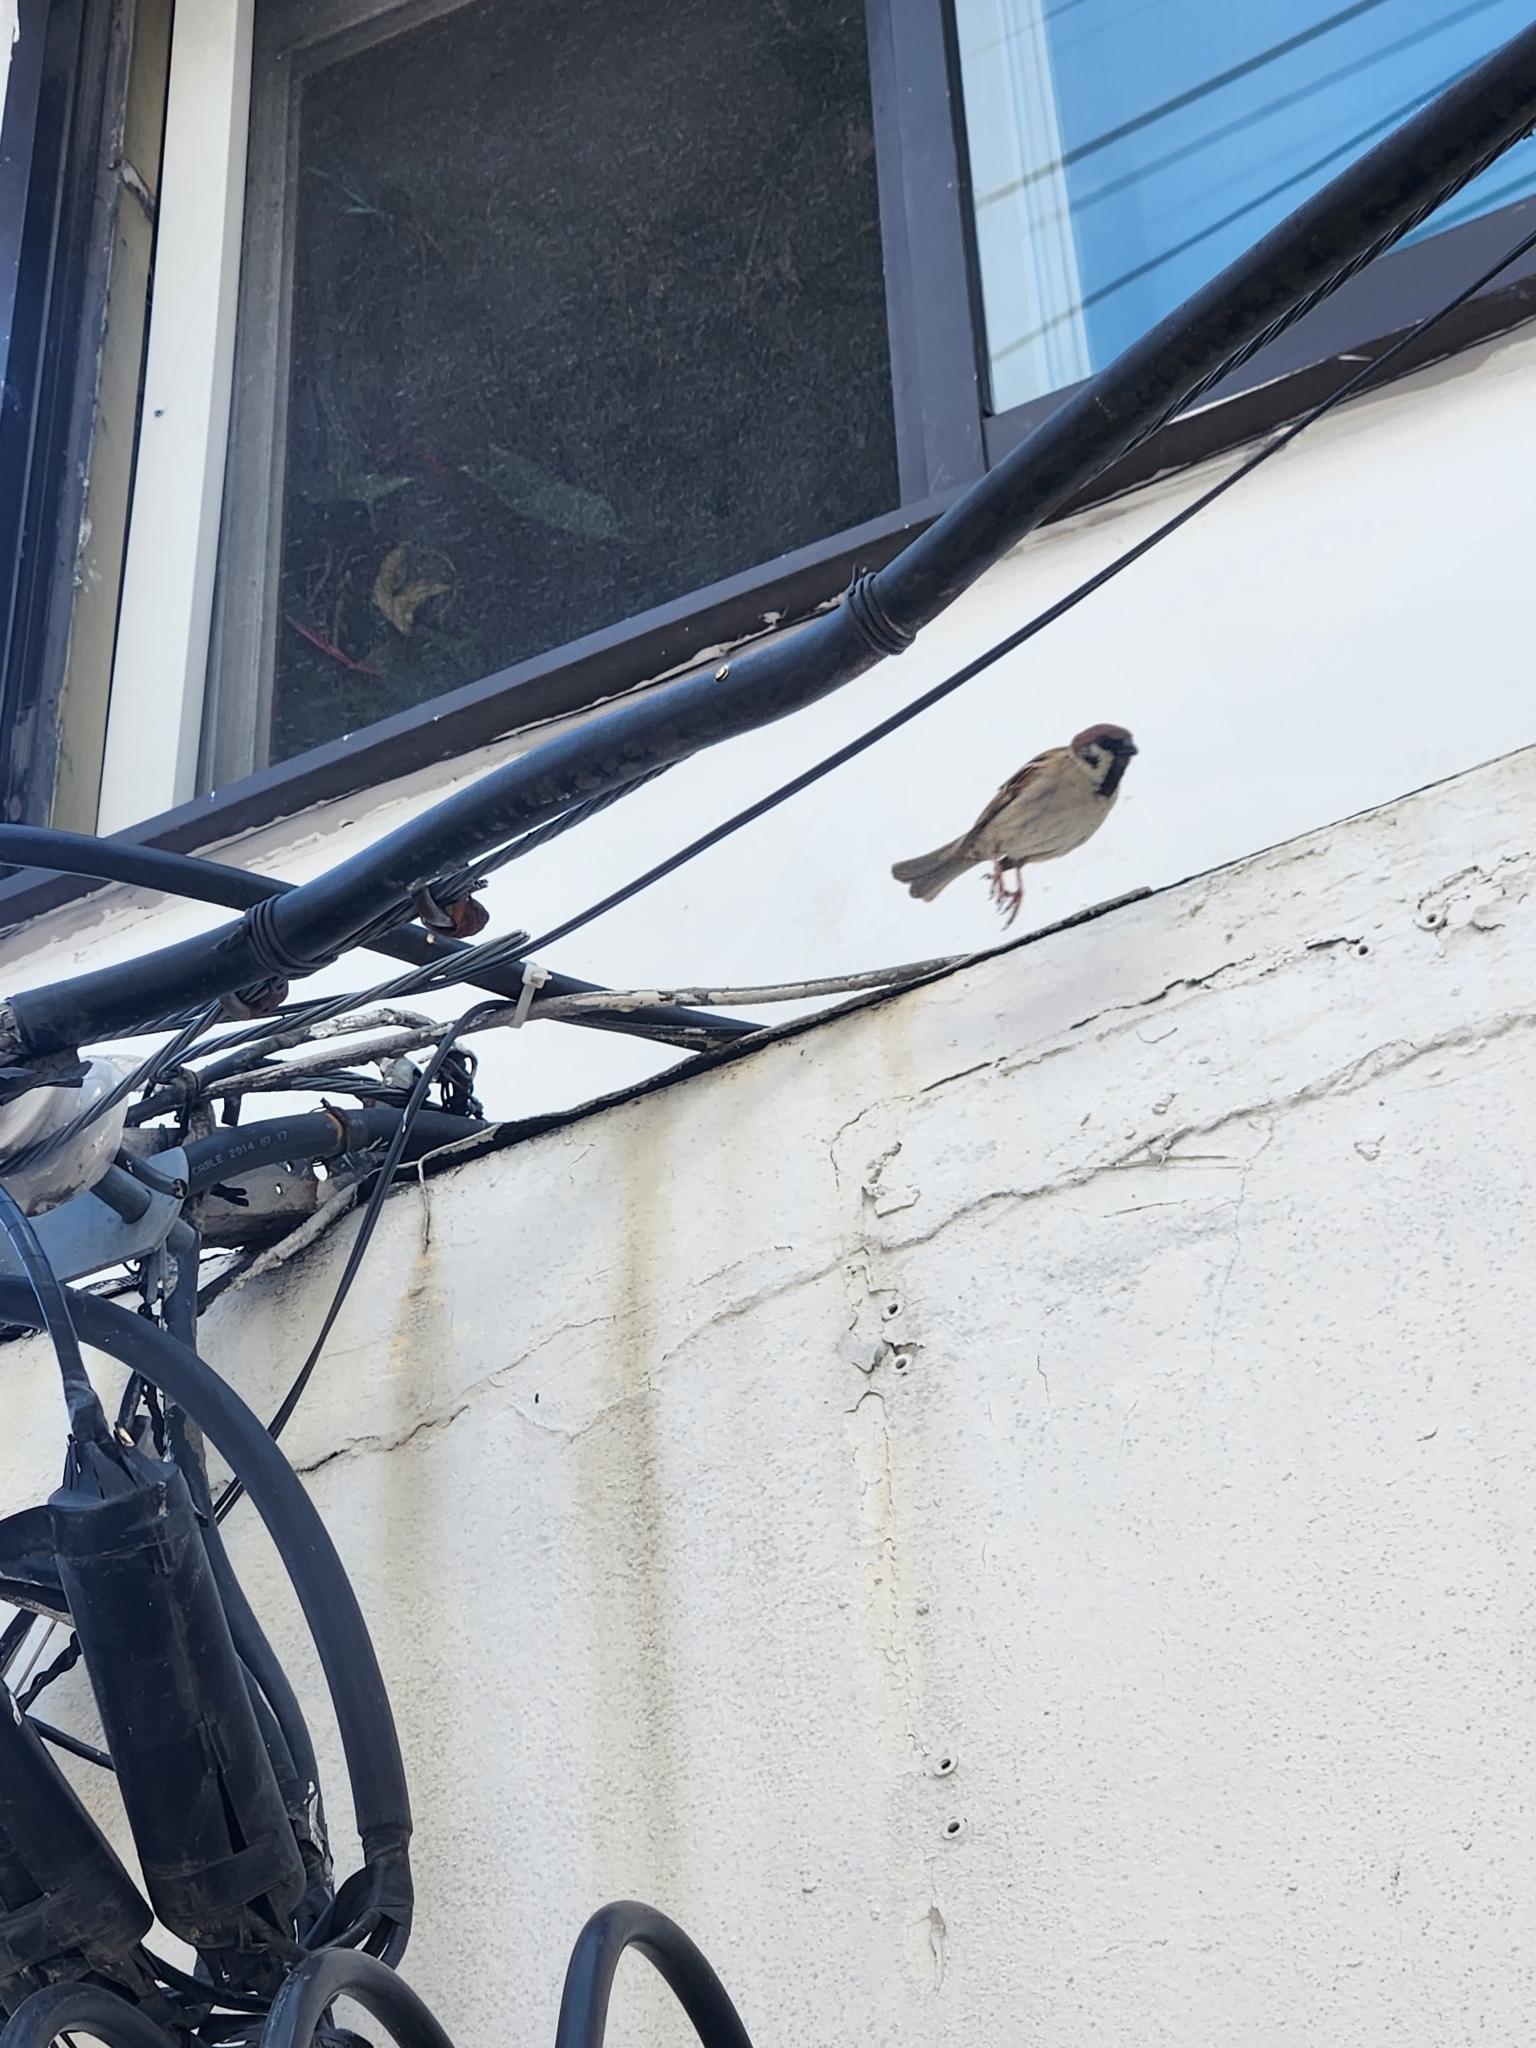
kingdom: Animalia
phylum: Chordata
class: Aves
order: Passeriformes
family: Passeridae
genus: Passer
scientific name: Passer montanus
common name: Eurasian tree sparrow
